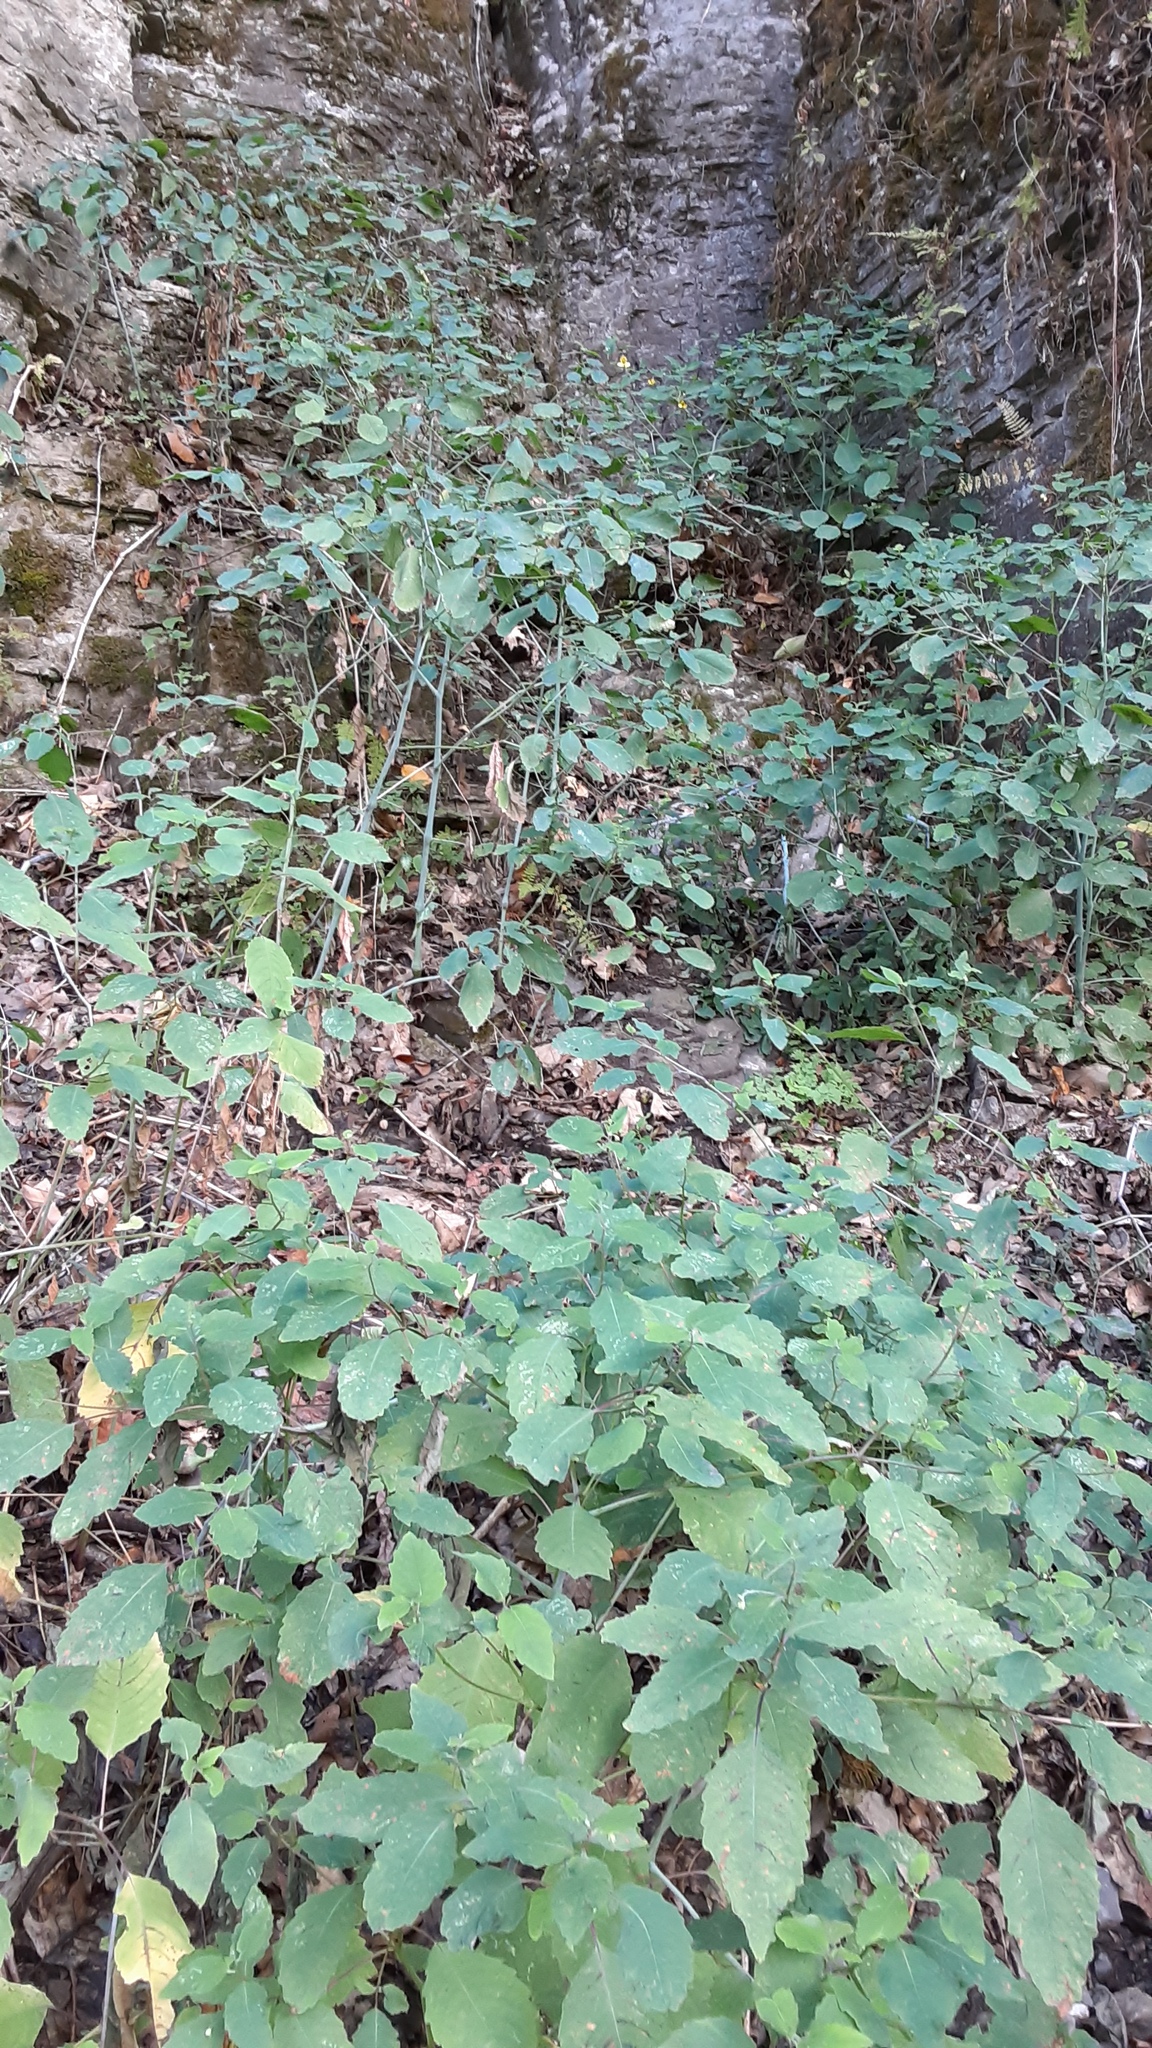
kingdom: Plantae
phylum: Tracheophyta
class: Magnoliopsida
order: Ericales
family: Balsaminaceae
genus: Impatiens
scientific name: Impatiens pallida
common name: Pale snapweed
